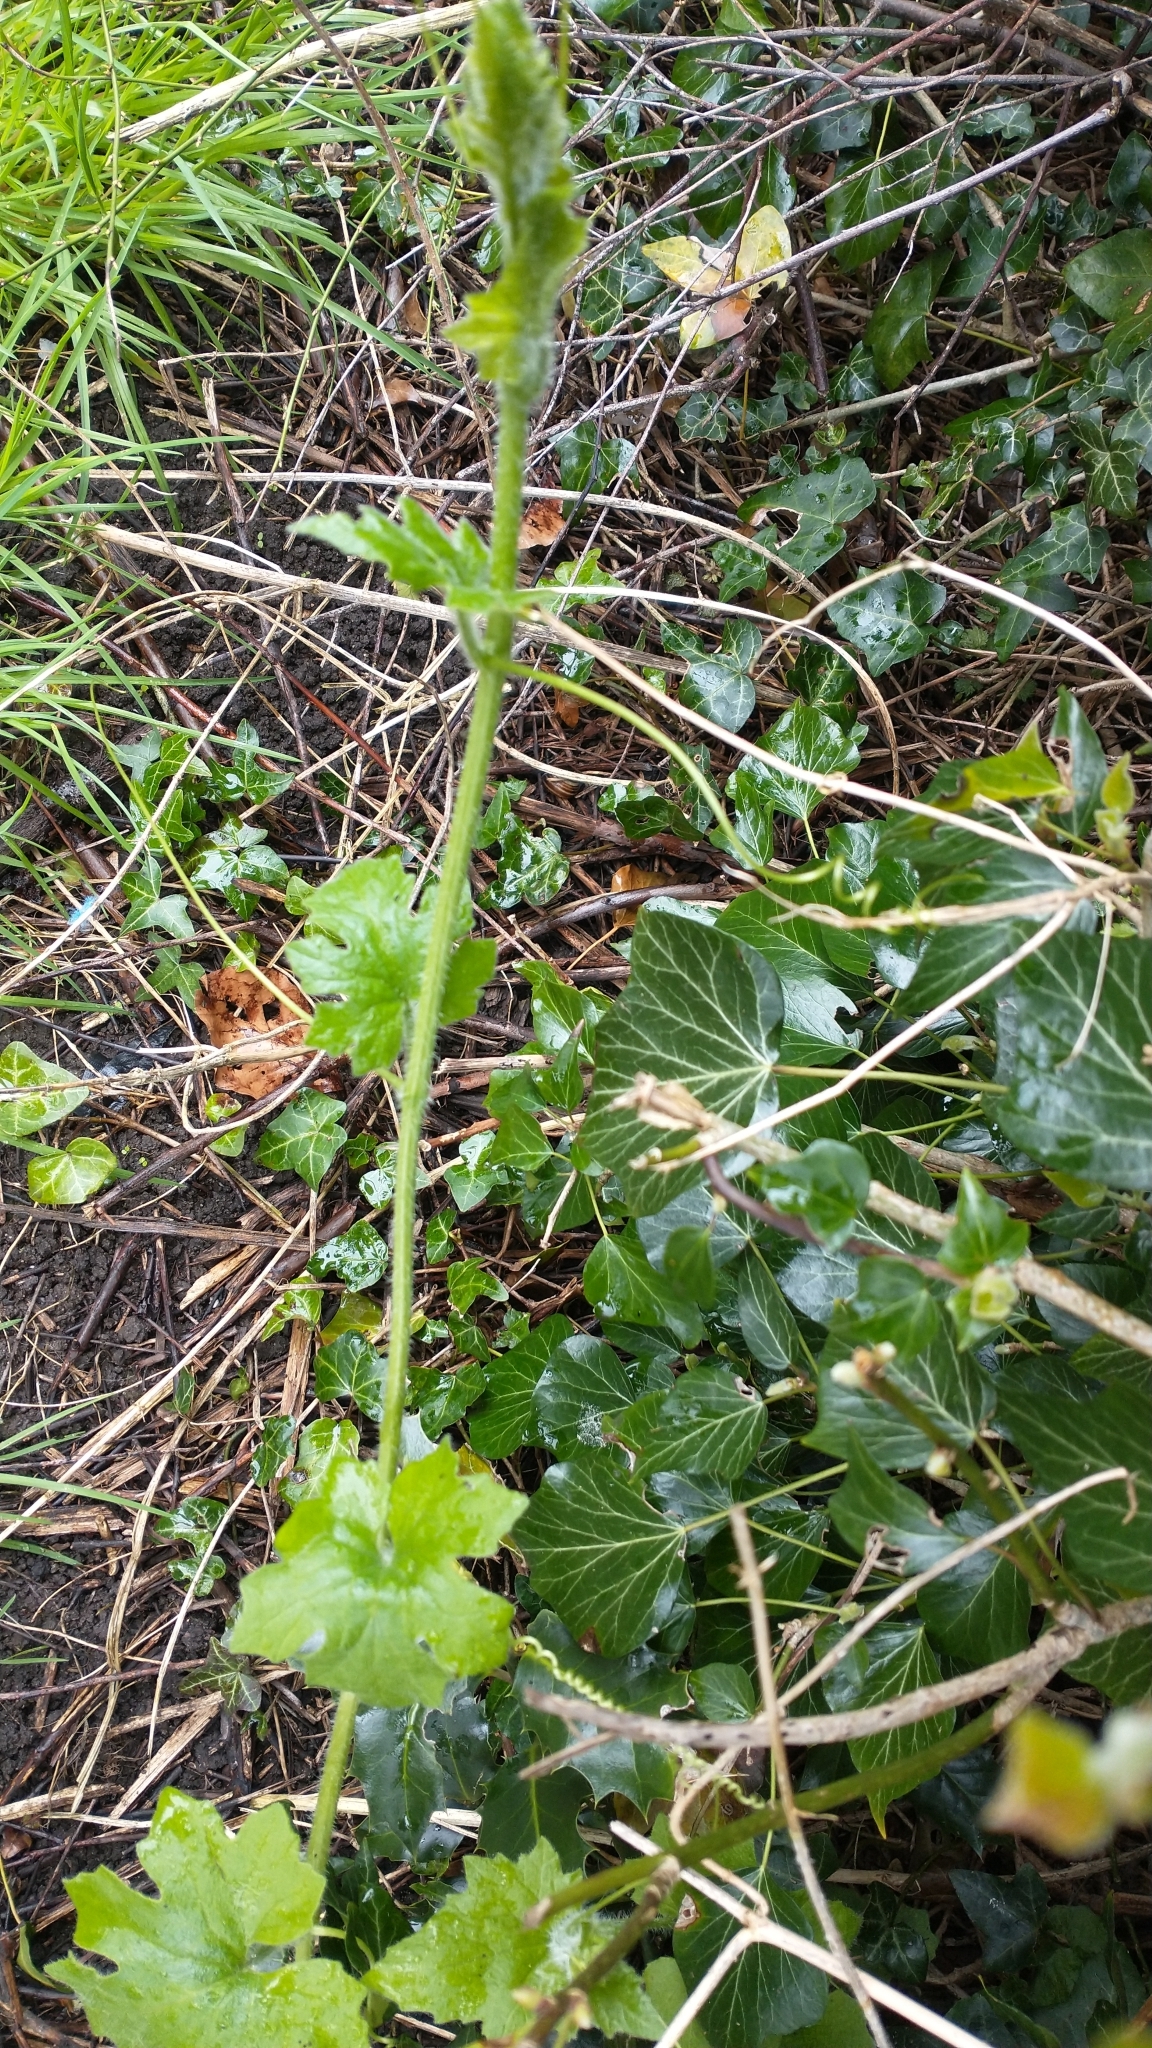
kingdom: Plantae
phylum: Tracheophyta
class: Magnoliopsida
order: Cucurbitales
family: Cucurbitaceae
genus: Bryonia
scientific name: Bryonia cretica
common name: Cretan bryony
